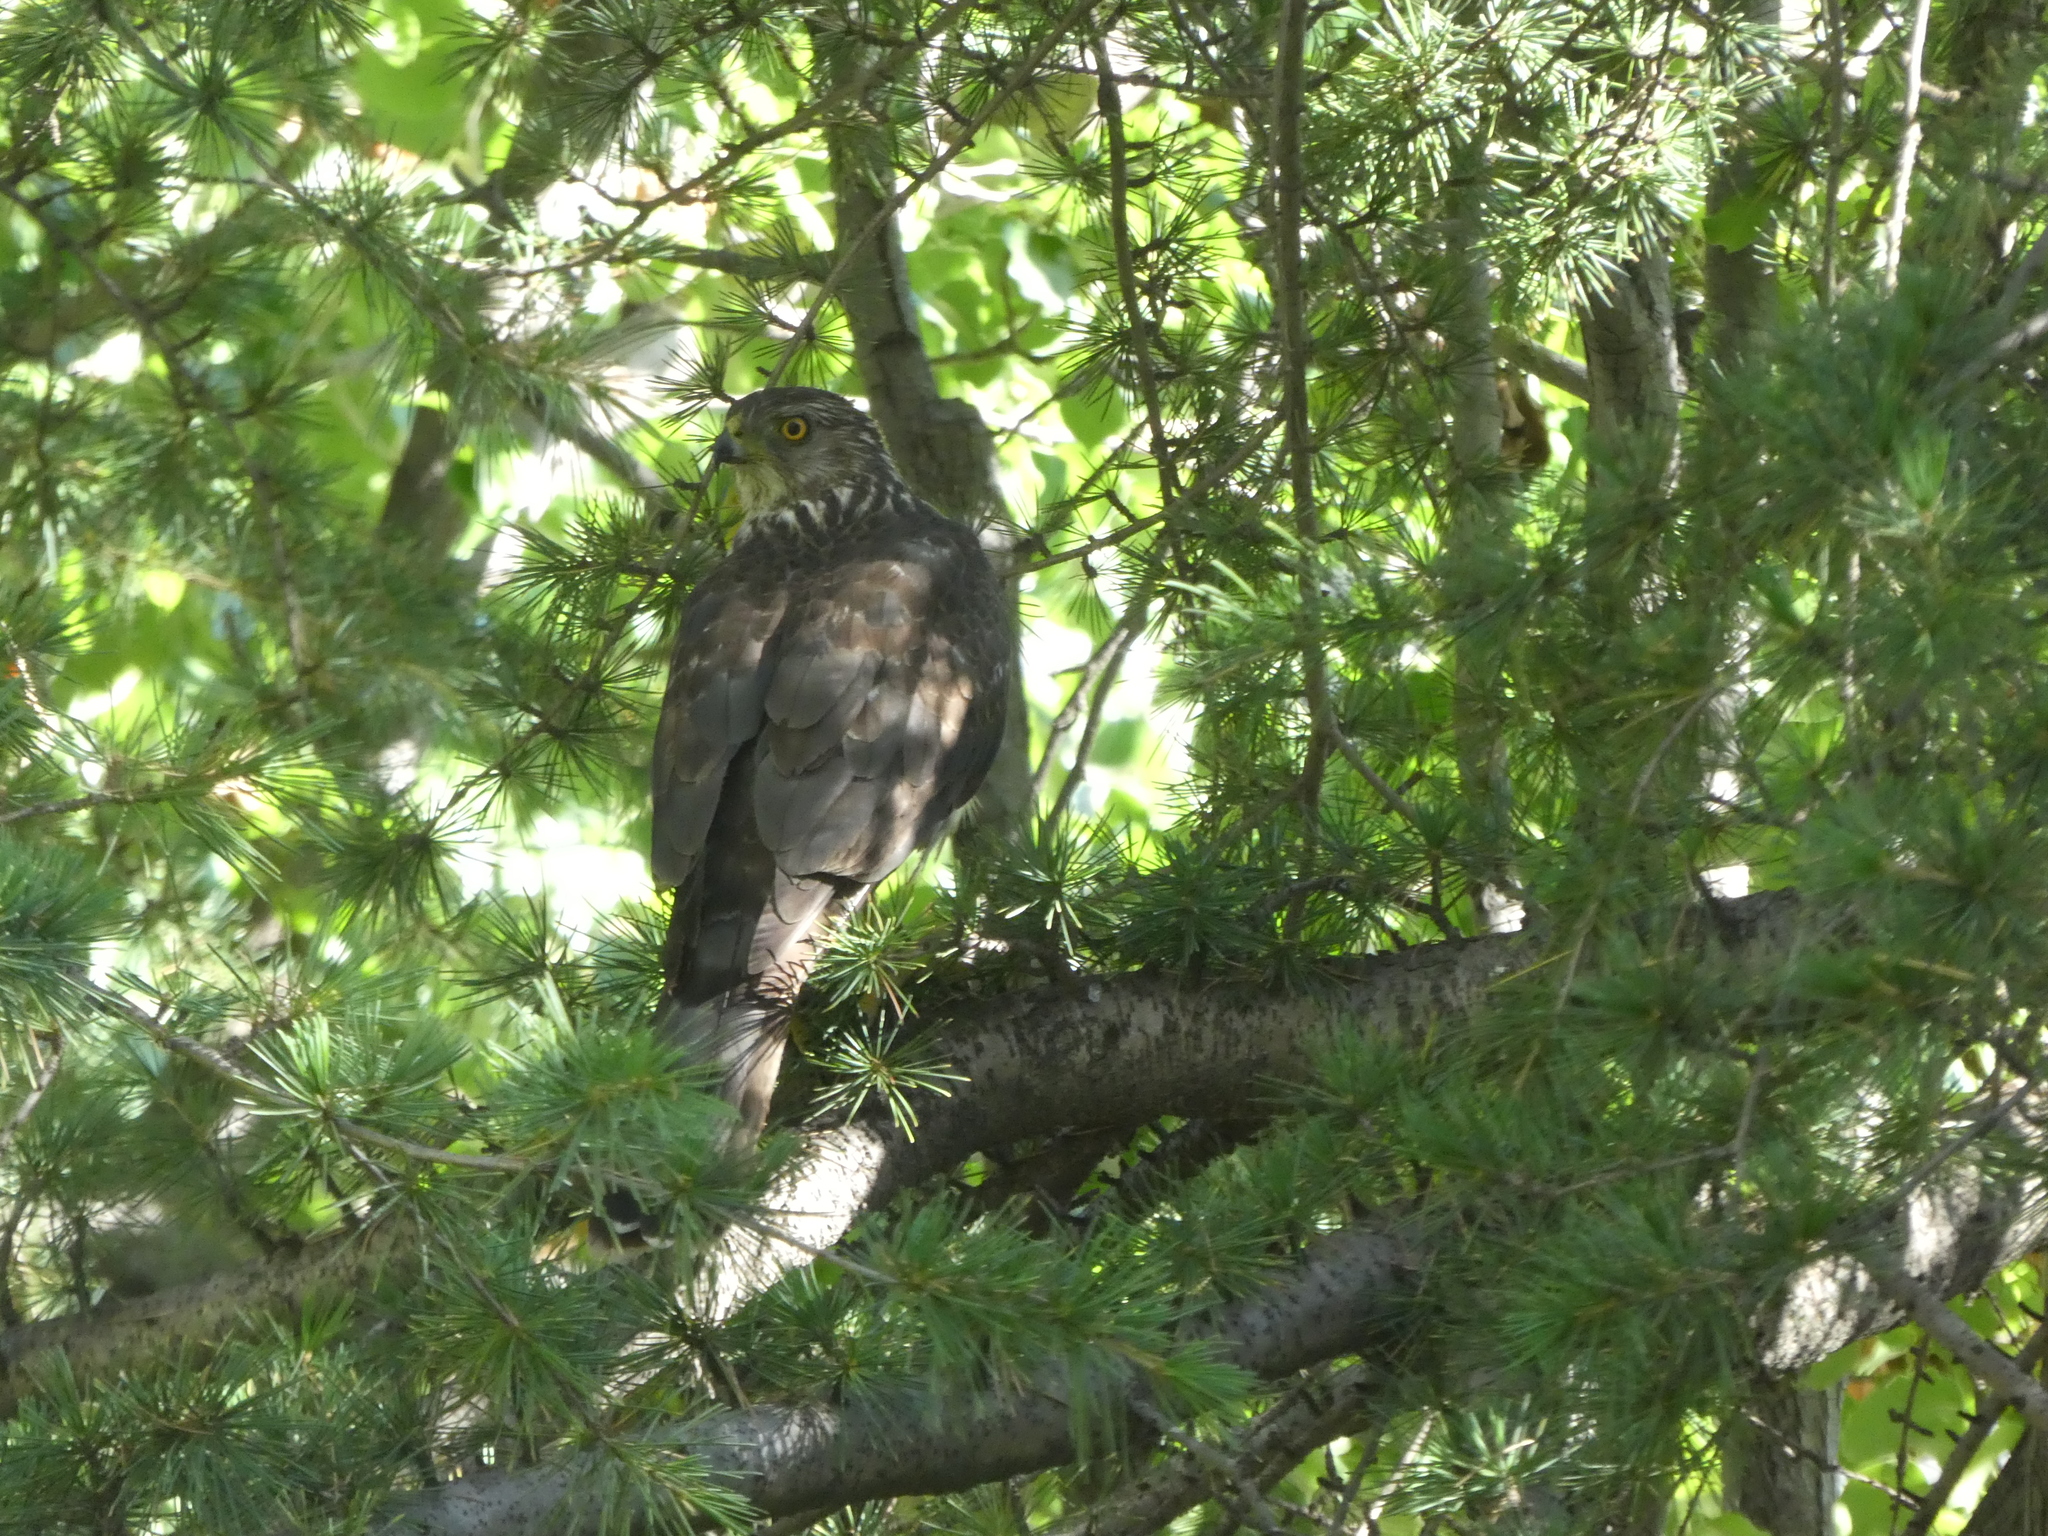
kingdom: Animalia
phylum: Chordata
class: Aves
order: Accipitriformes
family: Accipitridae
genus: Accipiter
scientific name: Accipiter cooperii
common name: Cooper's hawk
